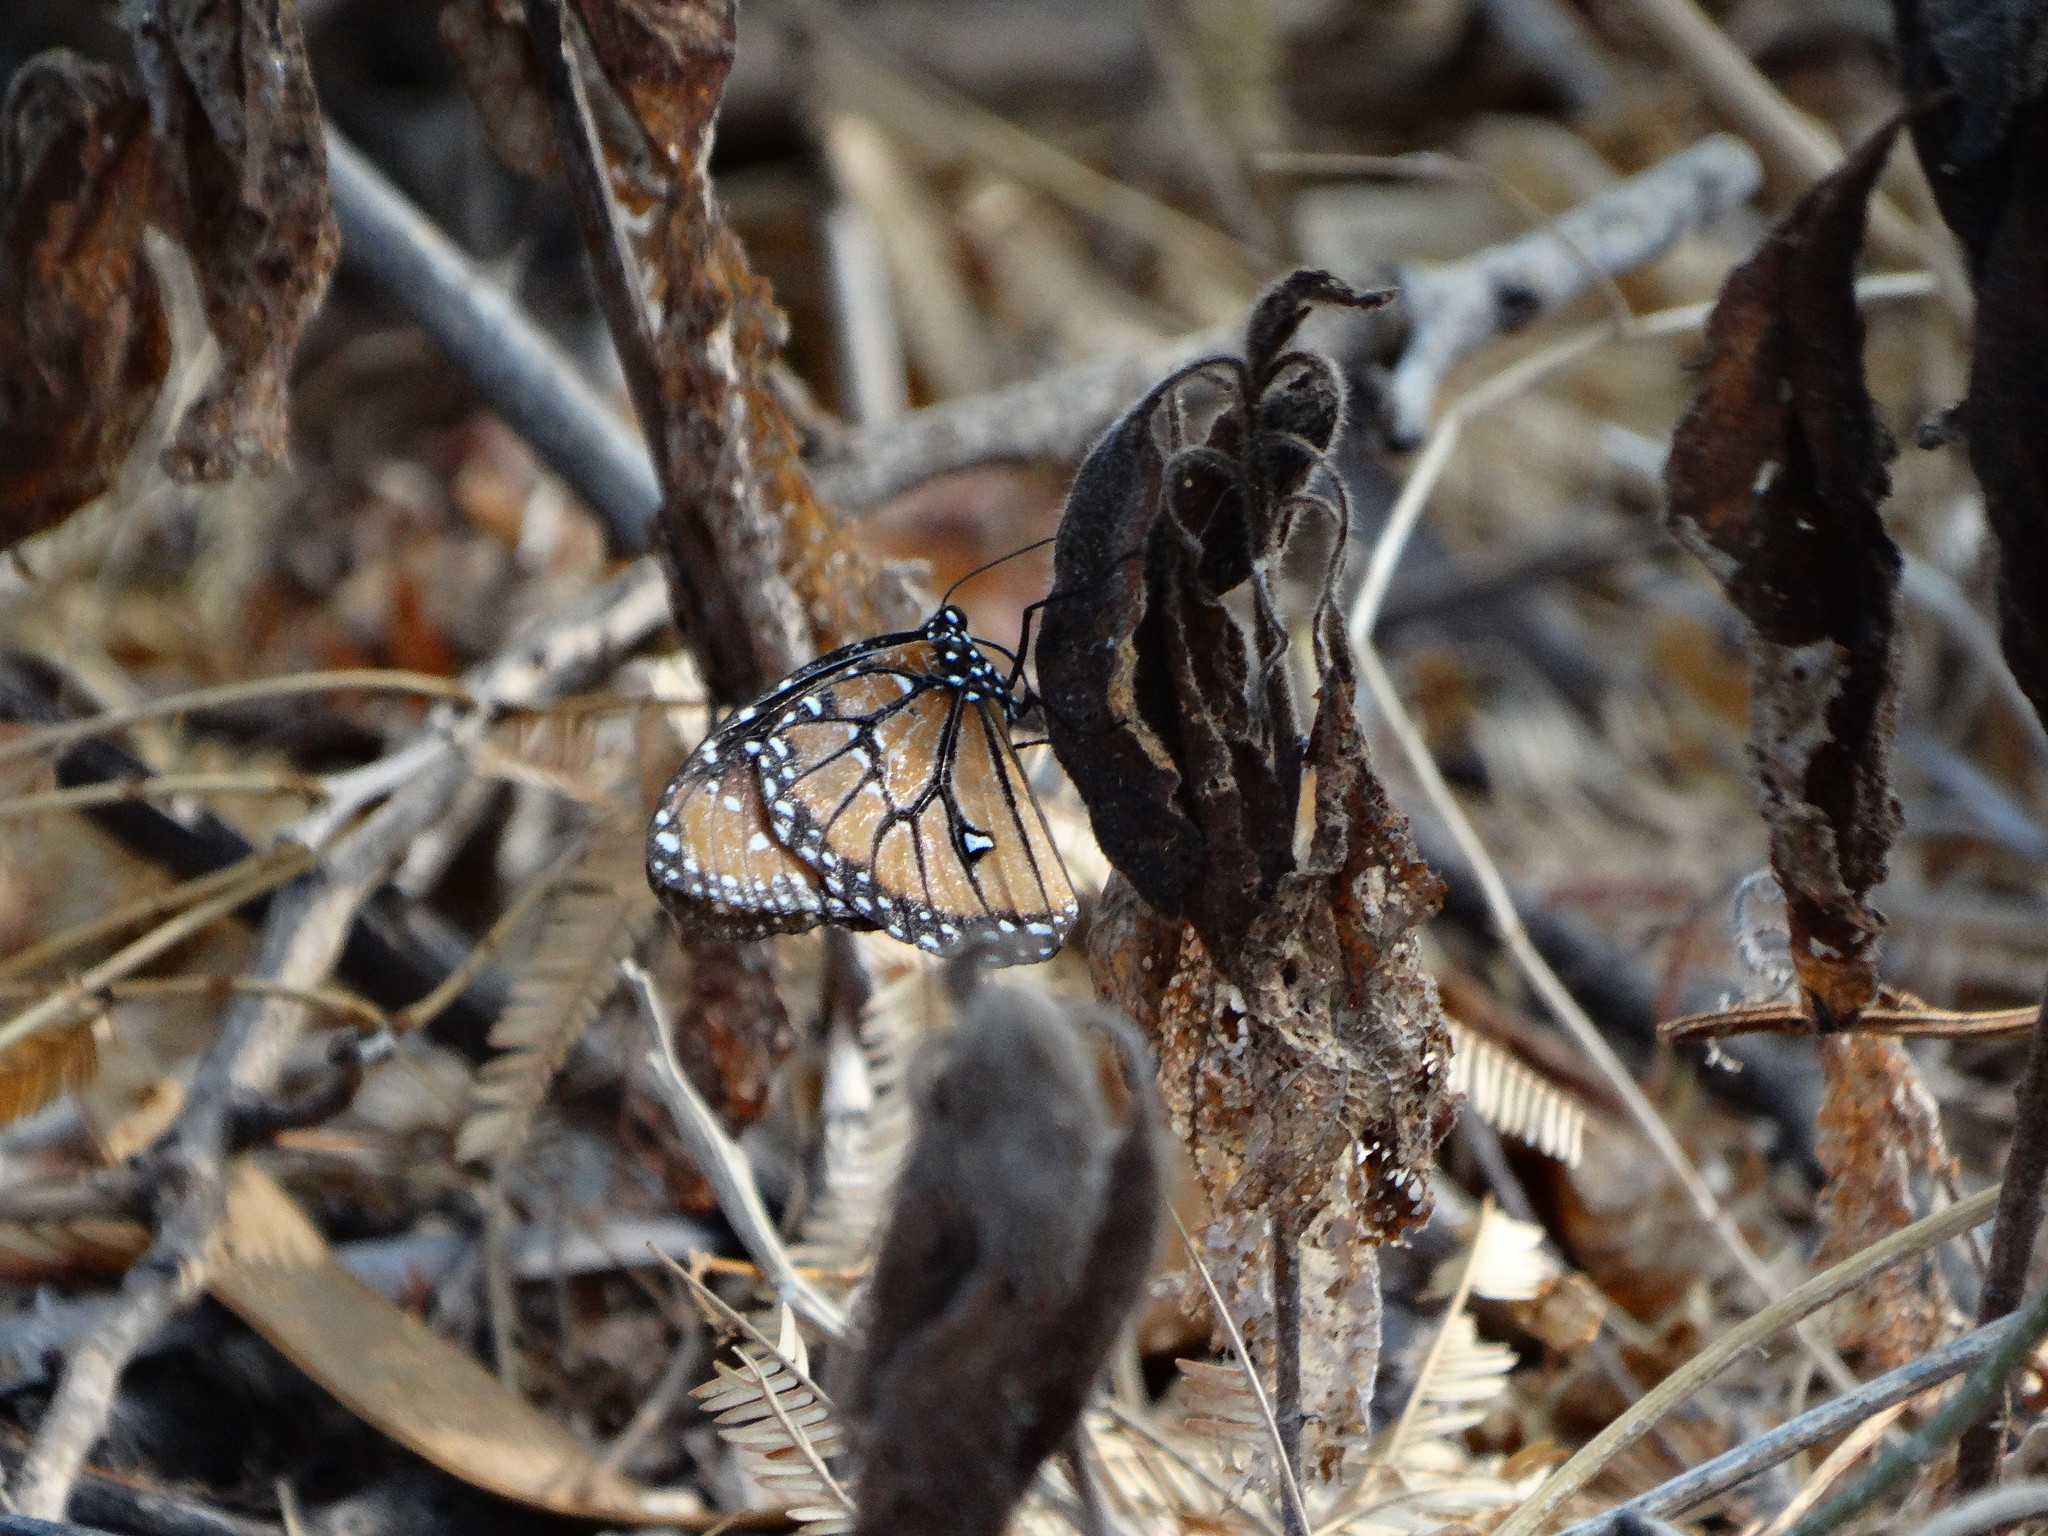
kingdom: Animalia
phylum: Arthropoda
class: Insecta
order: Lepidoptera
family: Nymphalidae
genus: Danaus
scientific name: Danaus gilippus
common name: Queen
